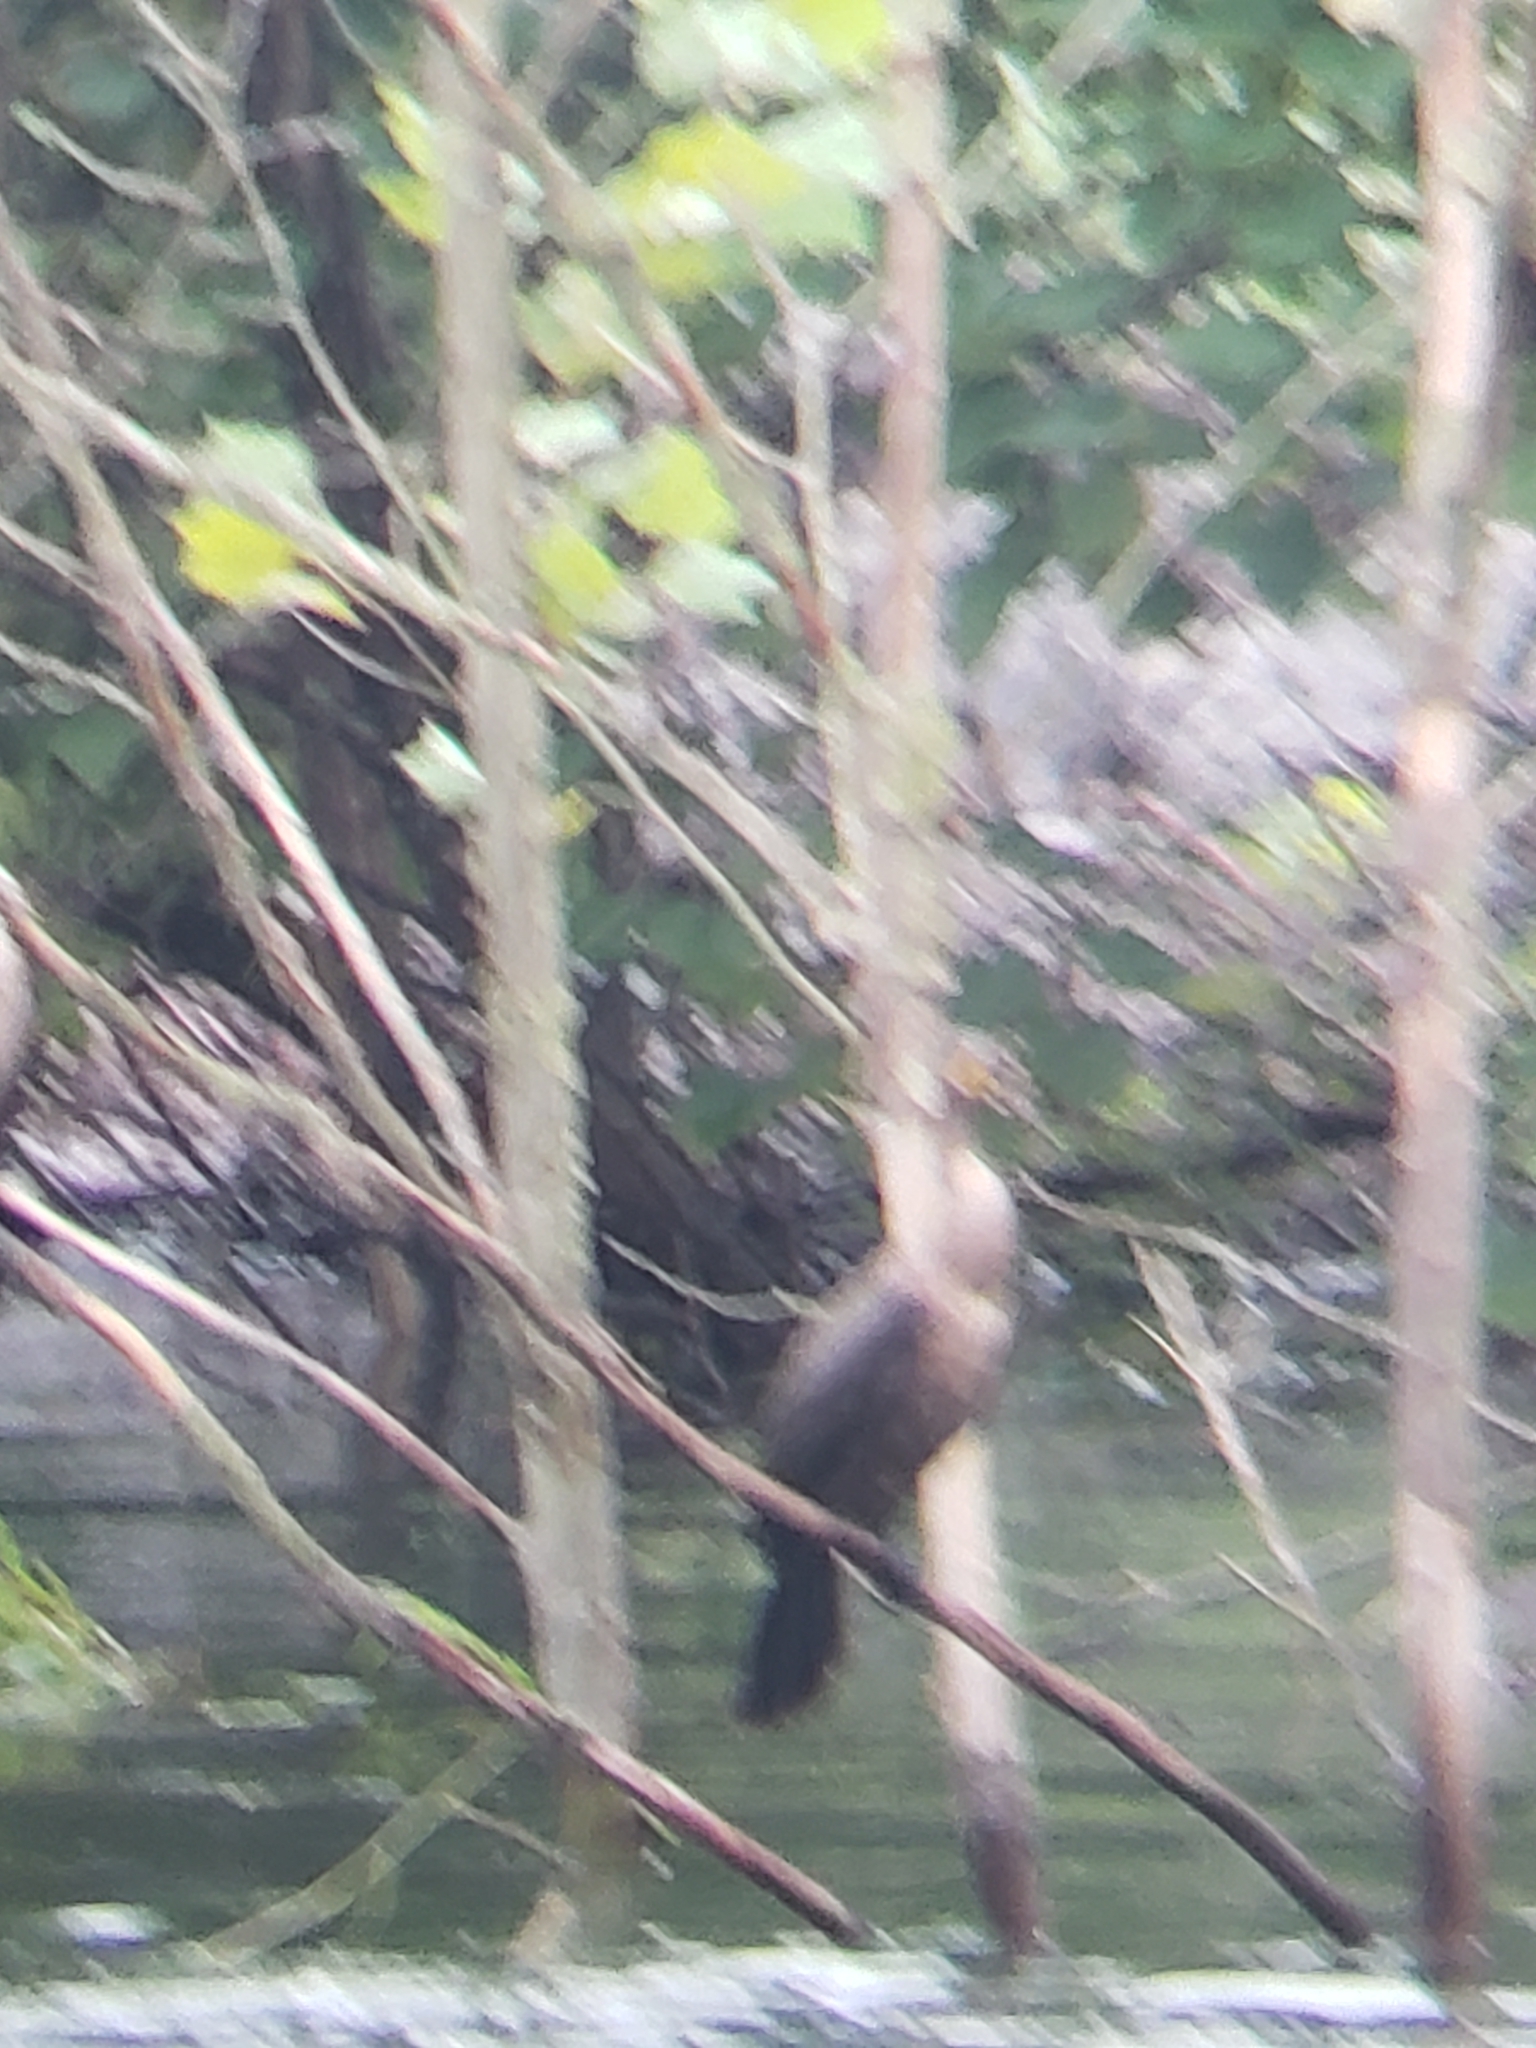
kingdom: Animalia
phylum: Chordata
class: Aves
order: Suliformes
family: Phalacrocoracidae
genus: Phalacrocorax
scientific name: Phalacrocorax auritus
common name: Double-crested cormorant
